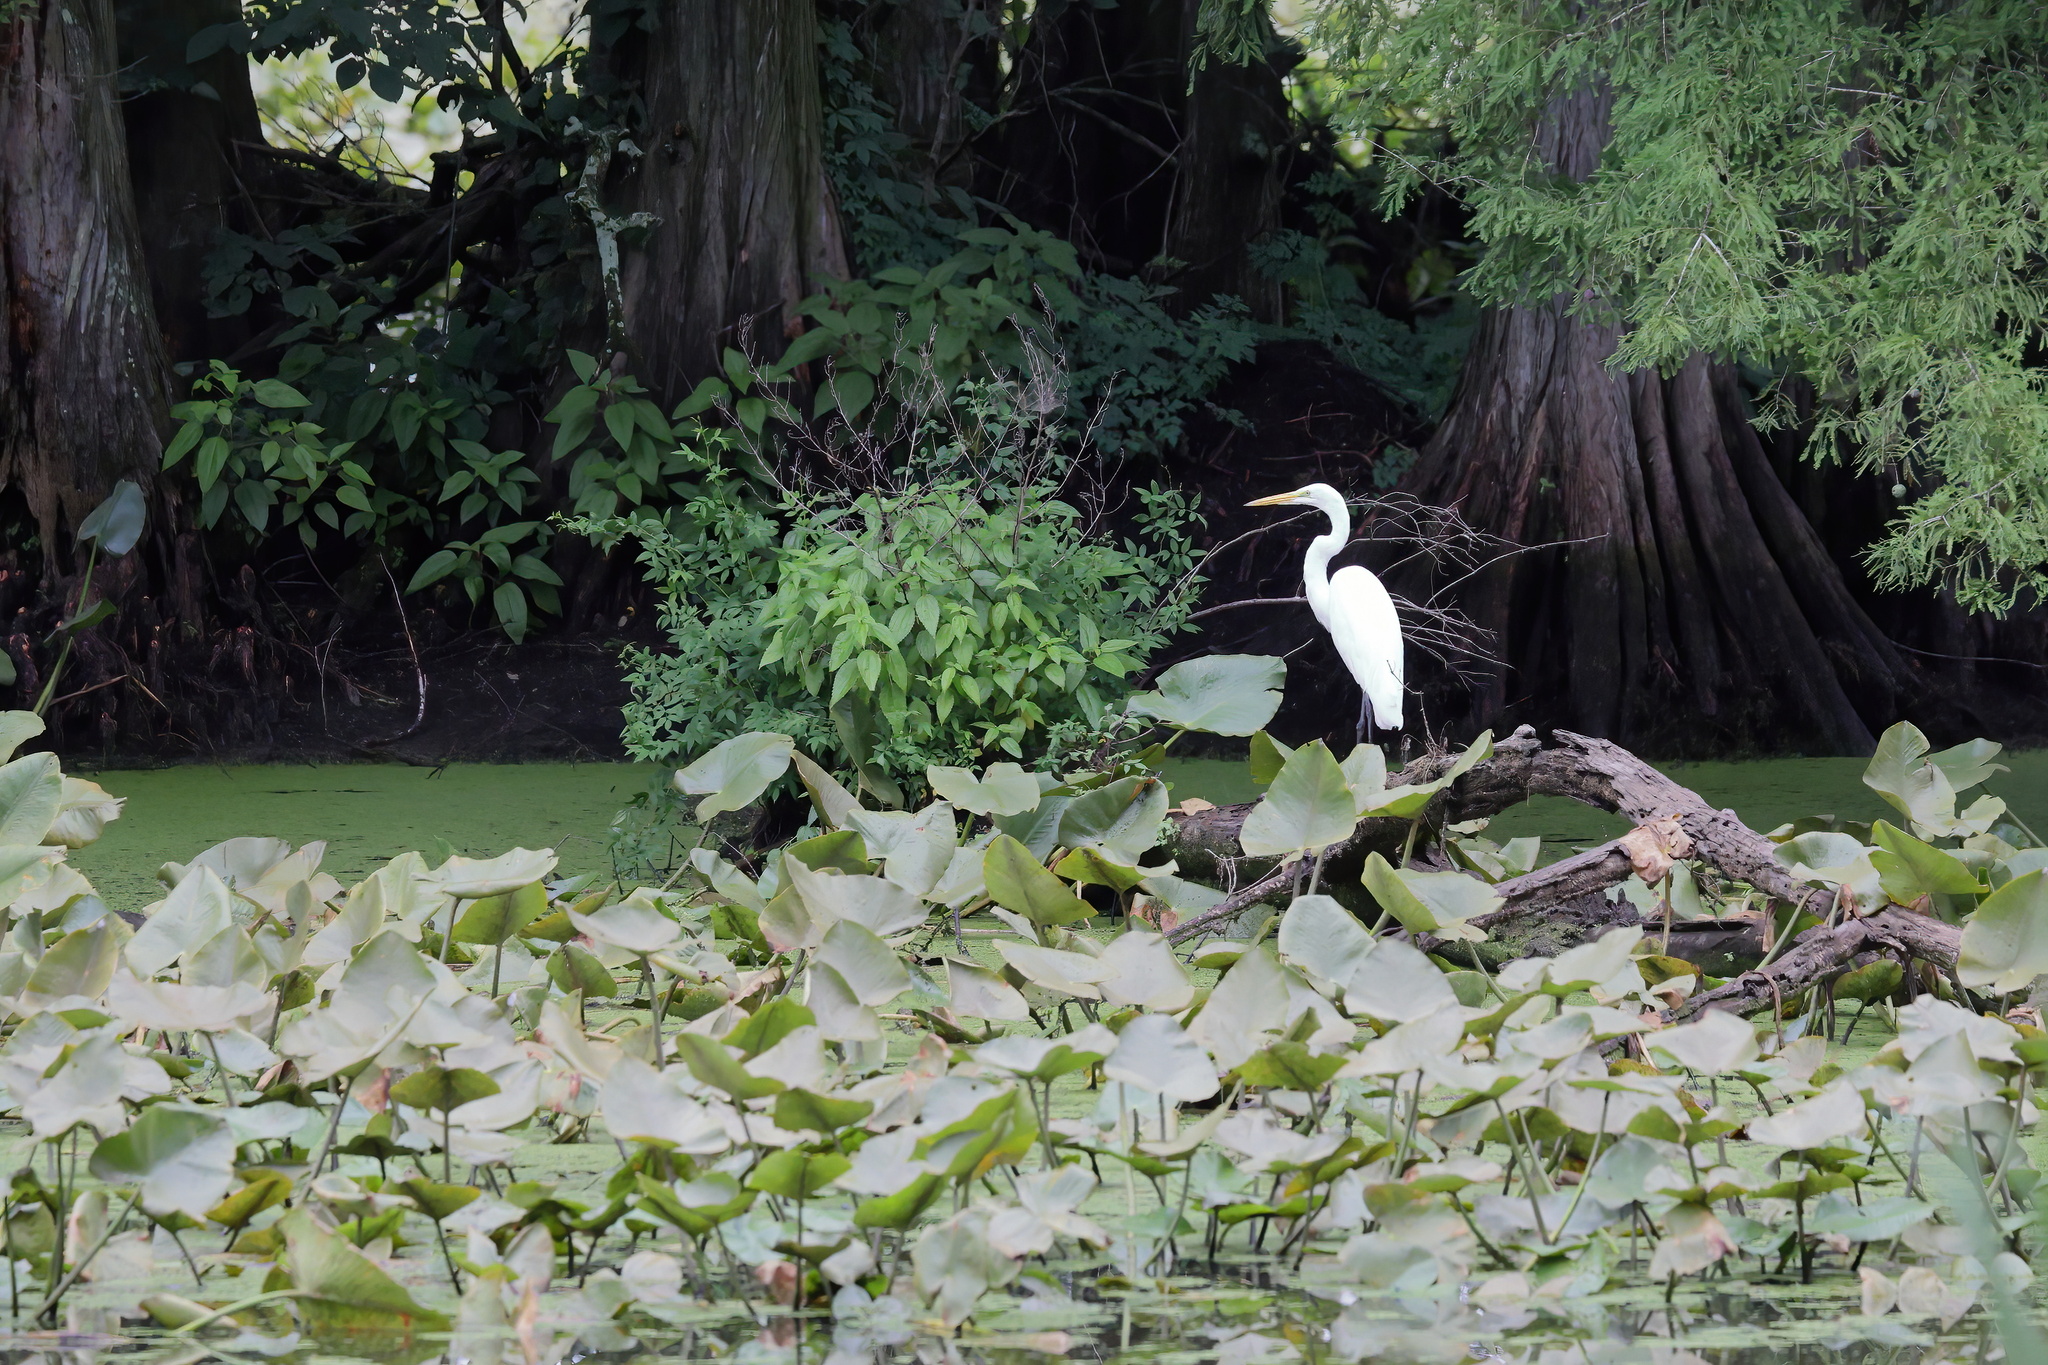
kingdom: Animalia
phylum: Chordata
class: Aves
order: Pelecaniformes
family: Ardeidae
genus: Ardea
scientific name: Ardea alba
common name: Great egret
